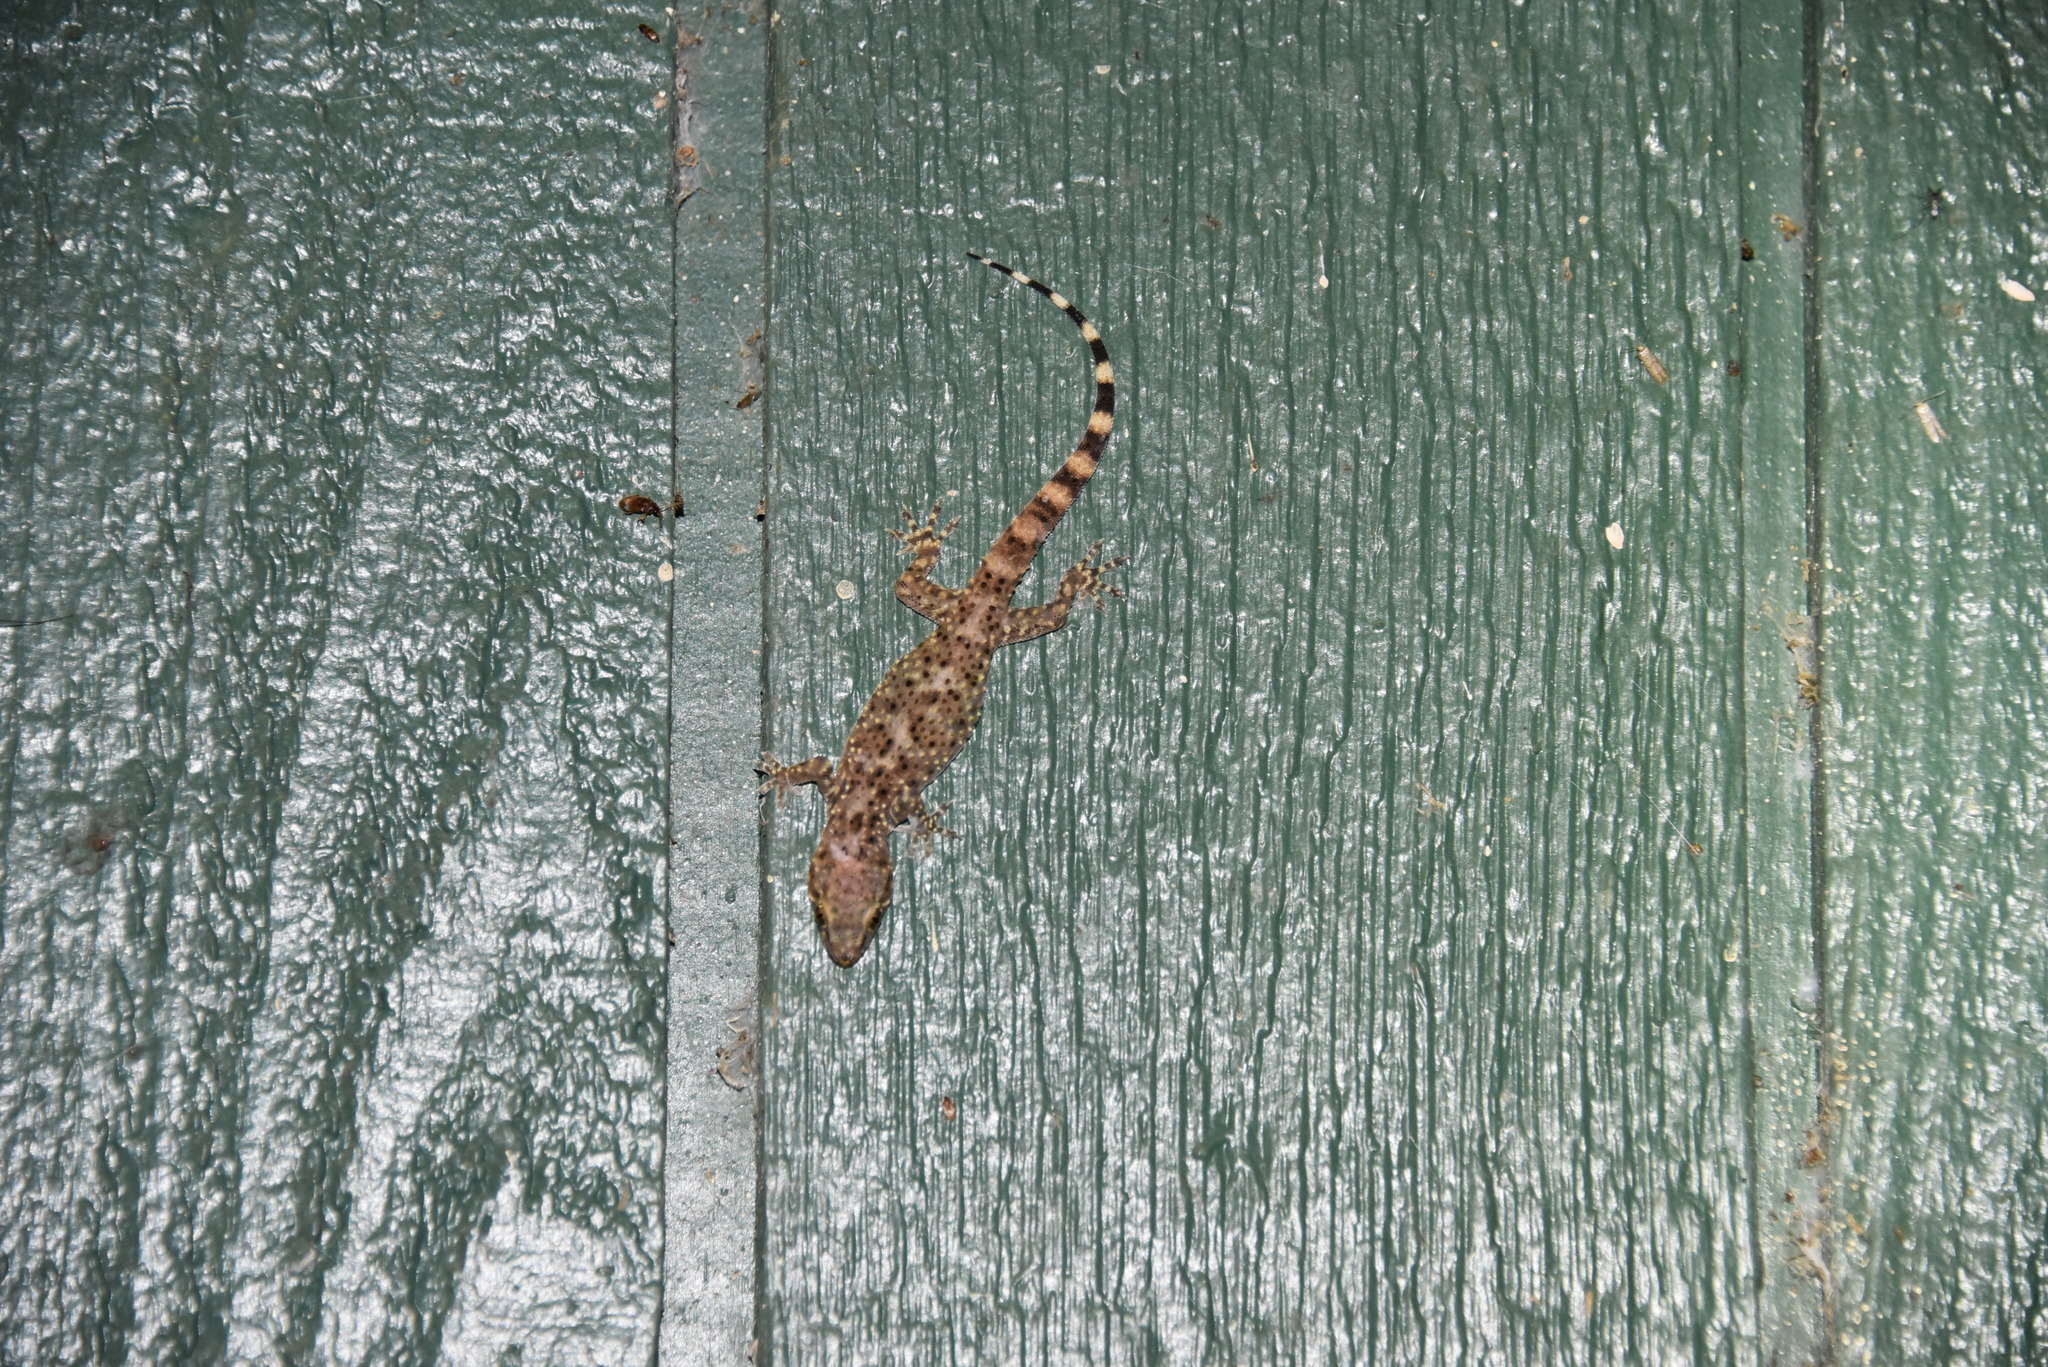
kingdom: Animalia
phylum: Chordata
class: Squamata
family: Gekkonidae
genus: Hemidactylus
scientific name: Hemidactylus turcicus
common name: Turkish gecko
